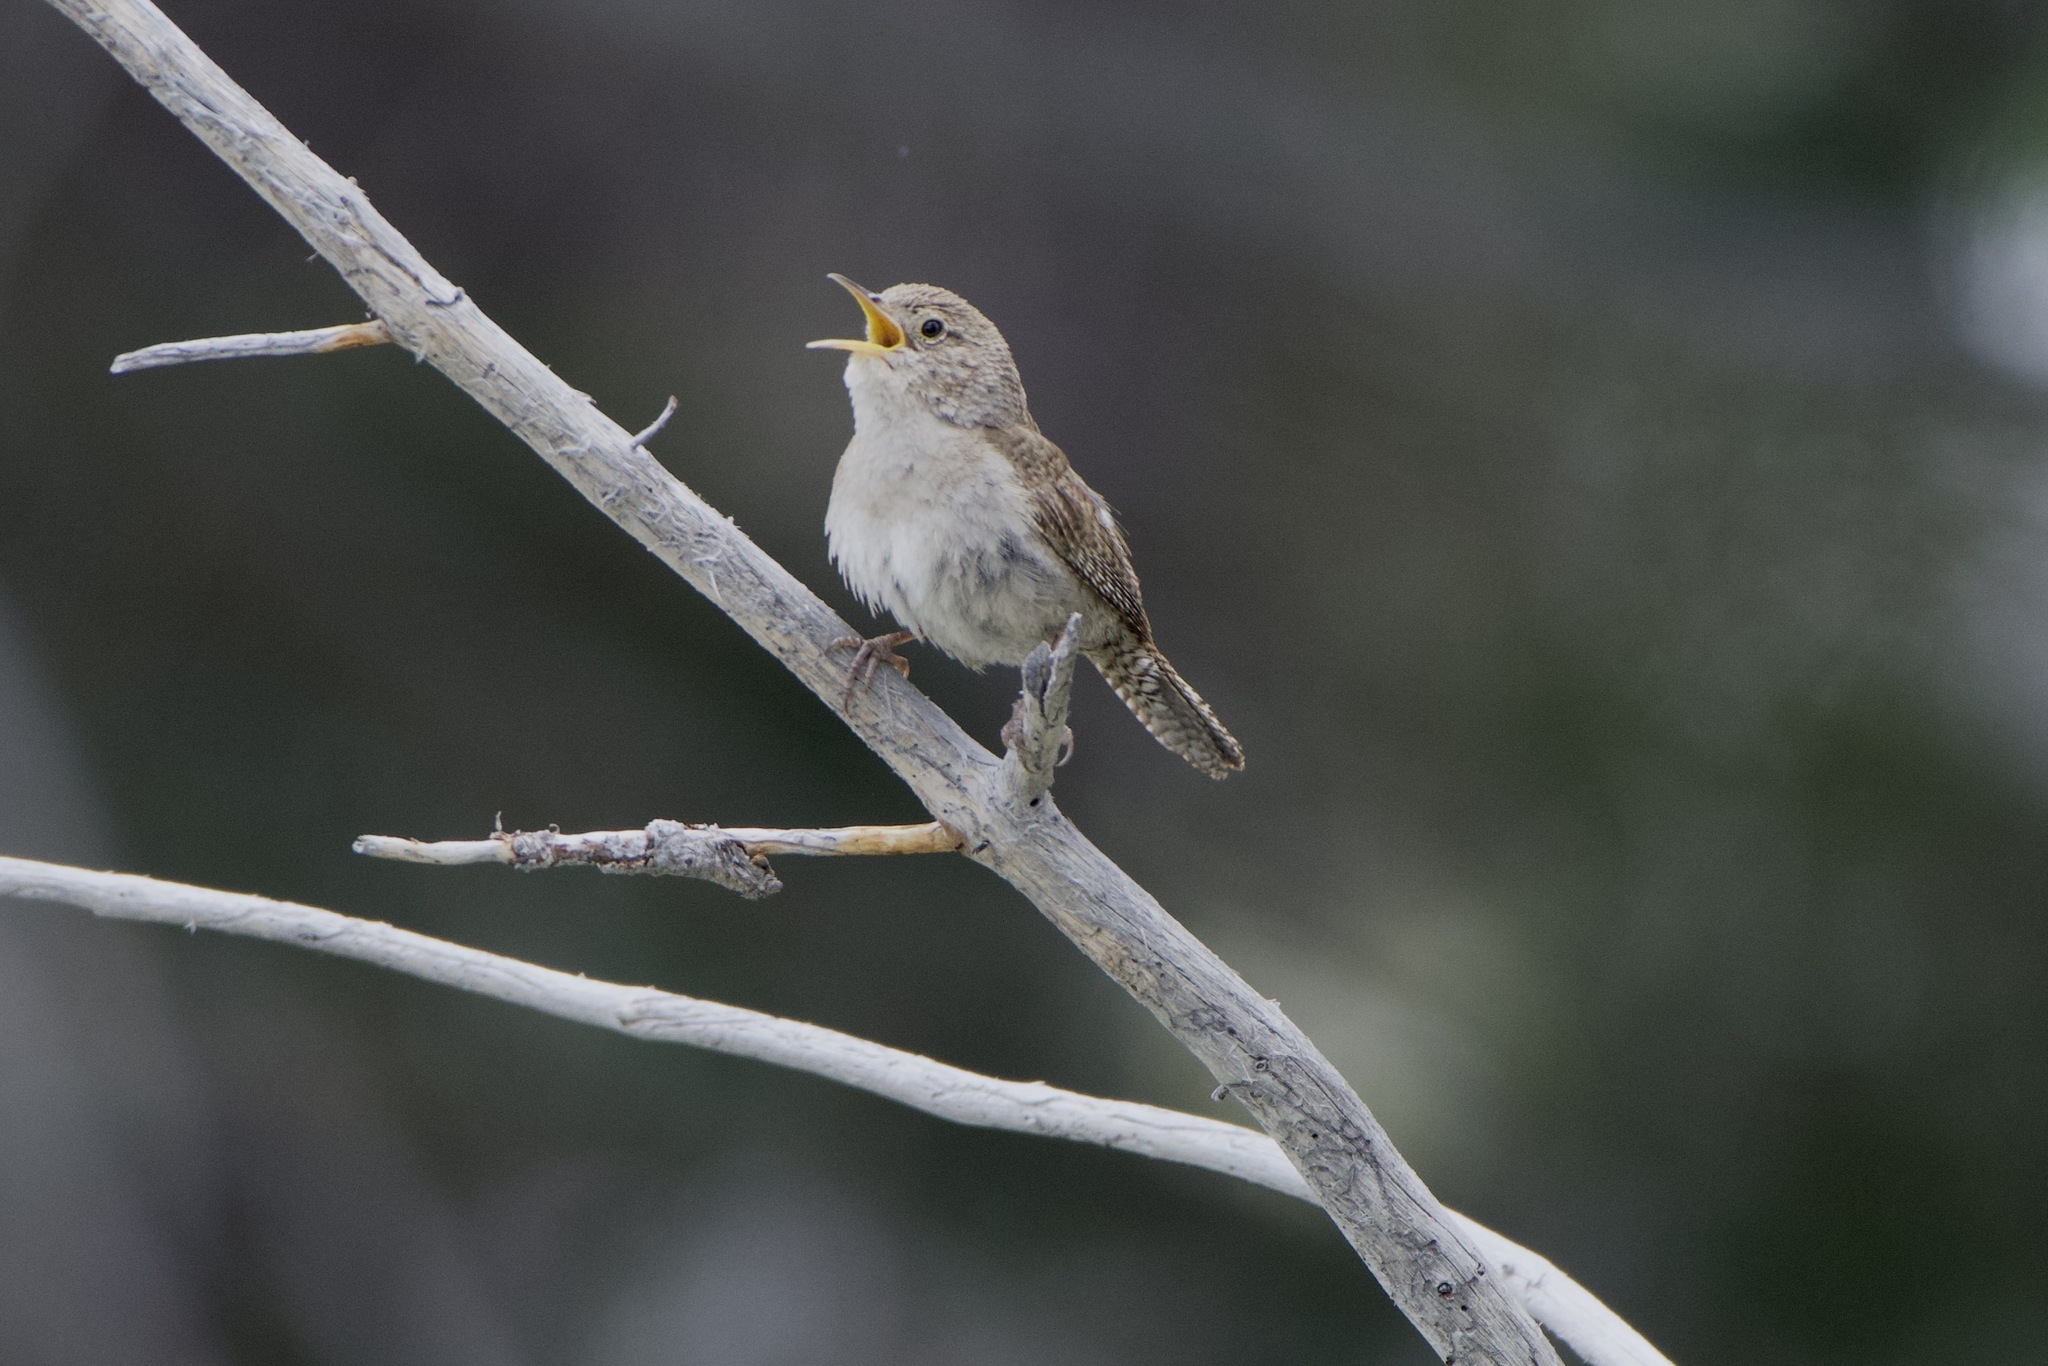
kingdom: Animalia
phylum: Chordata
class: Aves
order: Passeriformes
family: Troglodytidae
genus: Troglodytes
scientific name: Troglodytes aedon
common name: House wren
